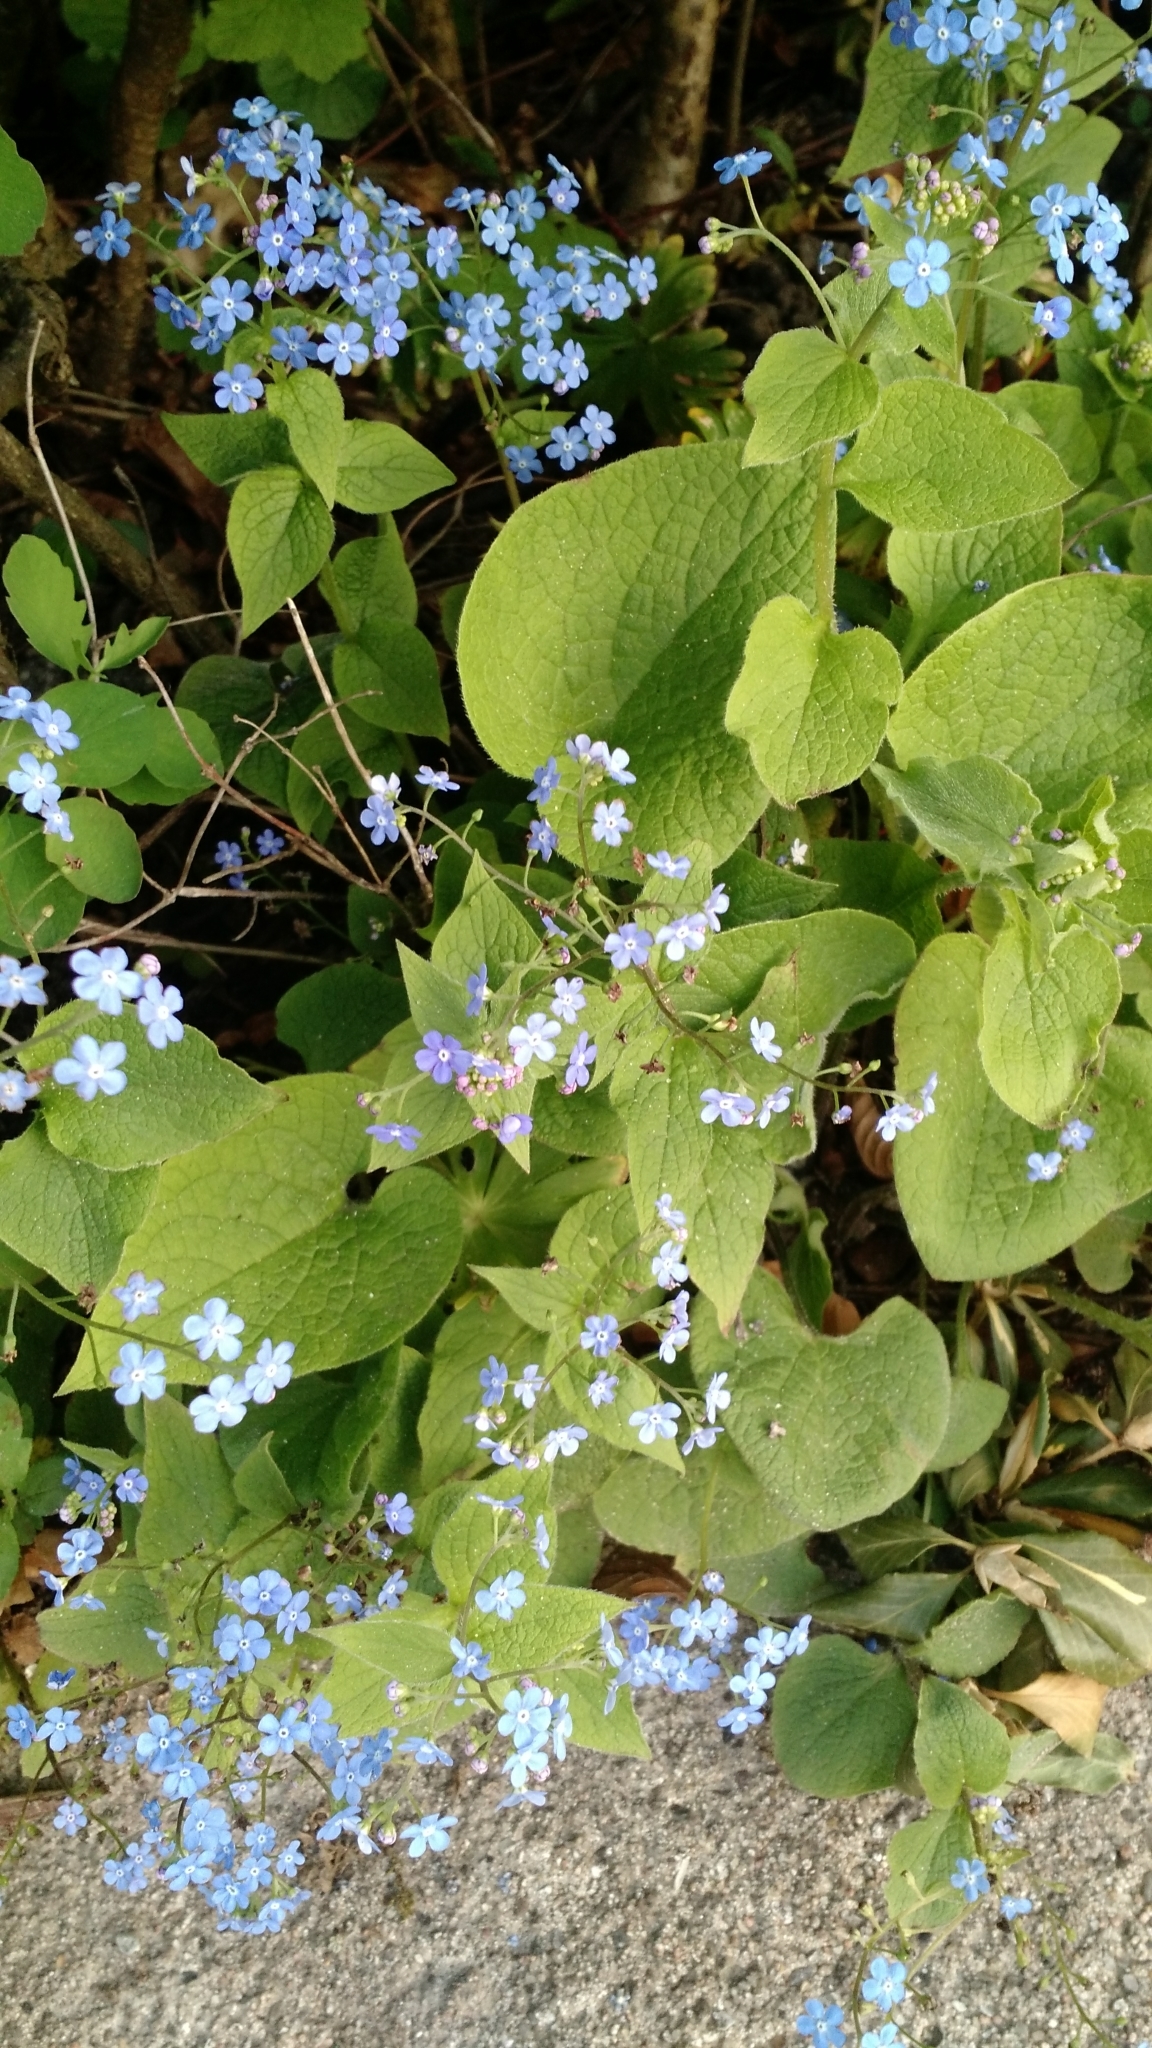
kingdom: Plantae
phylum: Tracheophyta
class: Magnoliopsida
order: Boraginales
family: Boraginaceae
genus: Brunnera
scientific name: Brunnera macrophylla
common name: Great forget-me-not
